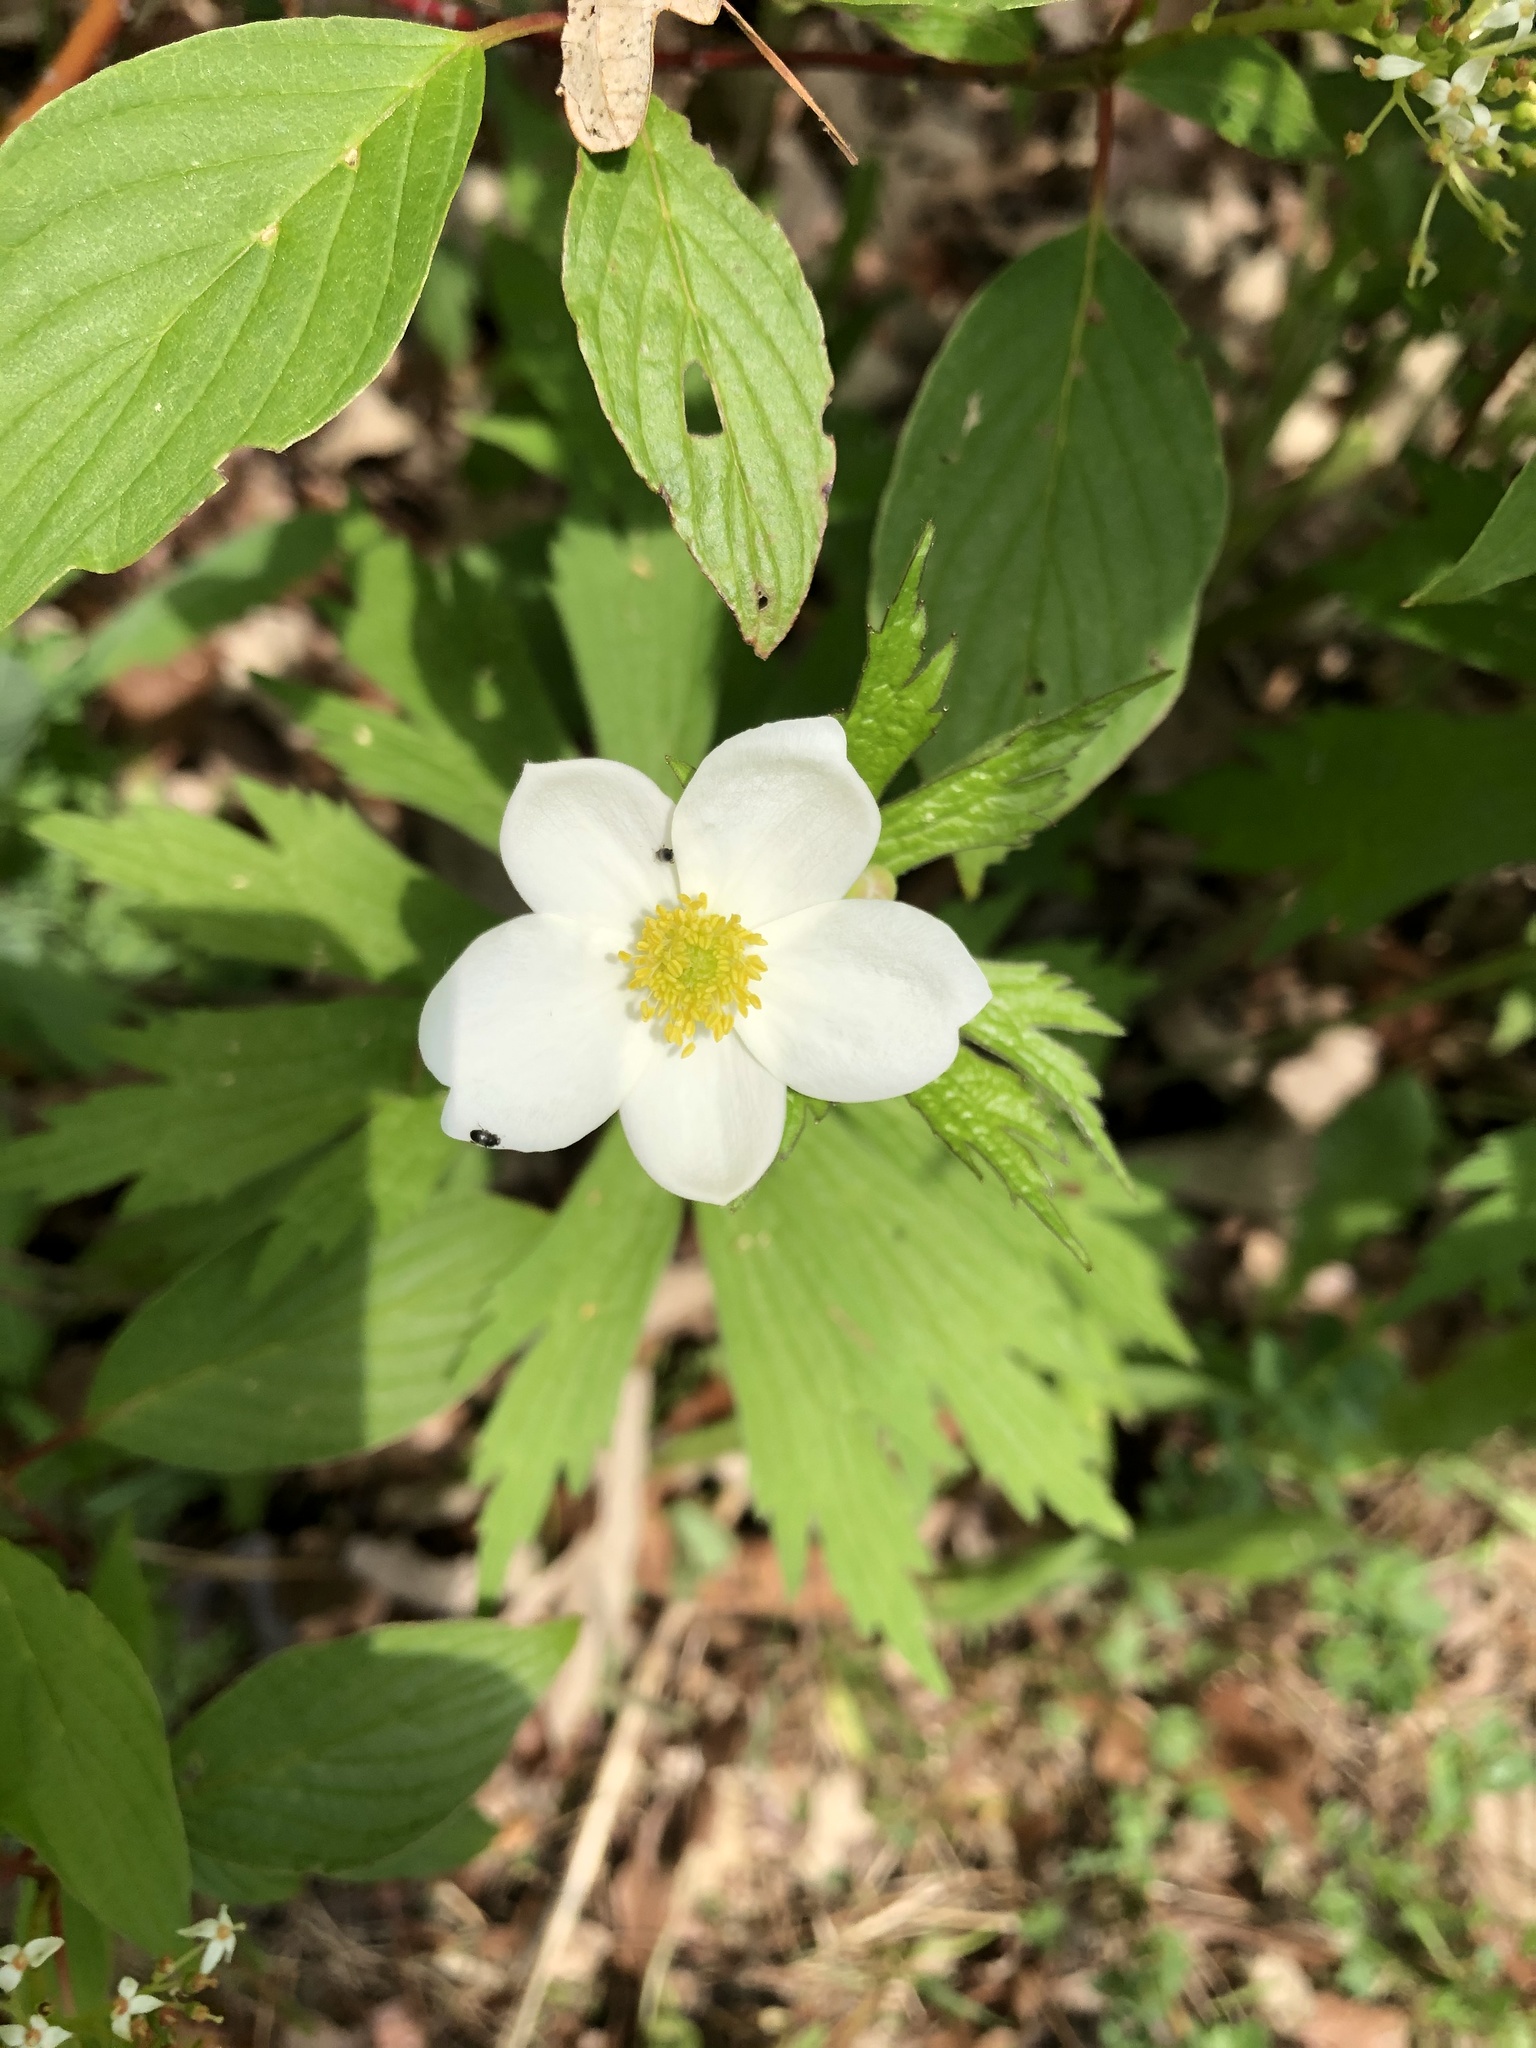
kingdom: Plantae
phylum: Tracheophyta
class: Magnoliopsida
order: Ranunculales
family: Ranunculaceae
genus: Anemonastrum
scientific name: Anemonastrum canadense
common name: Canada anemone
